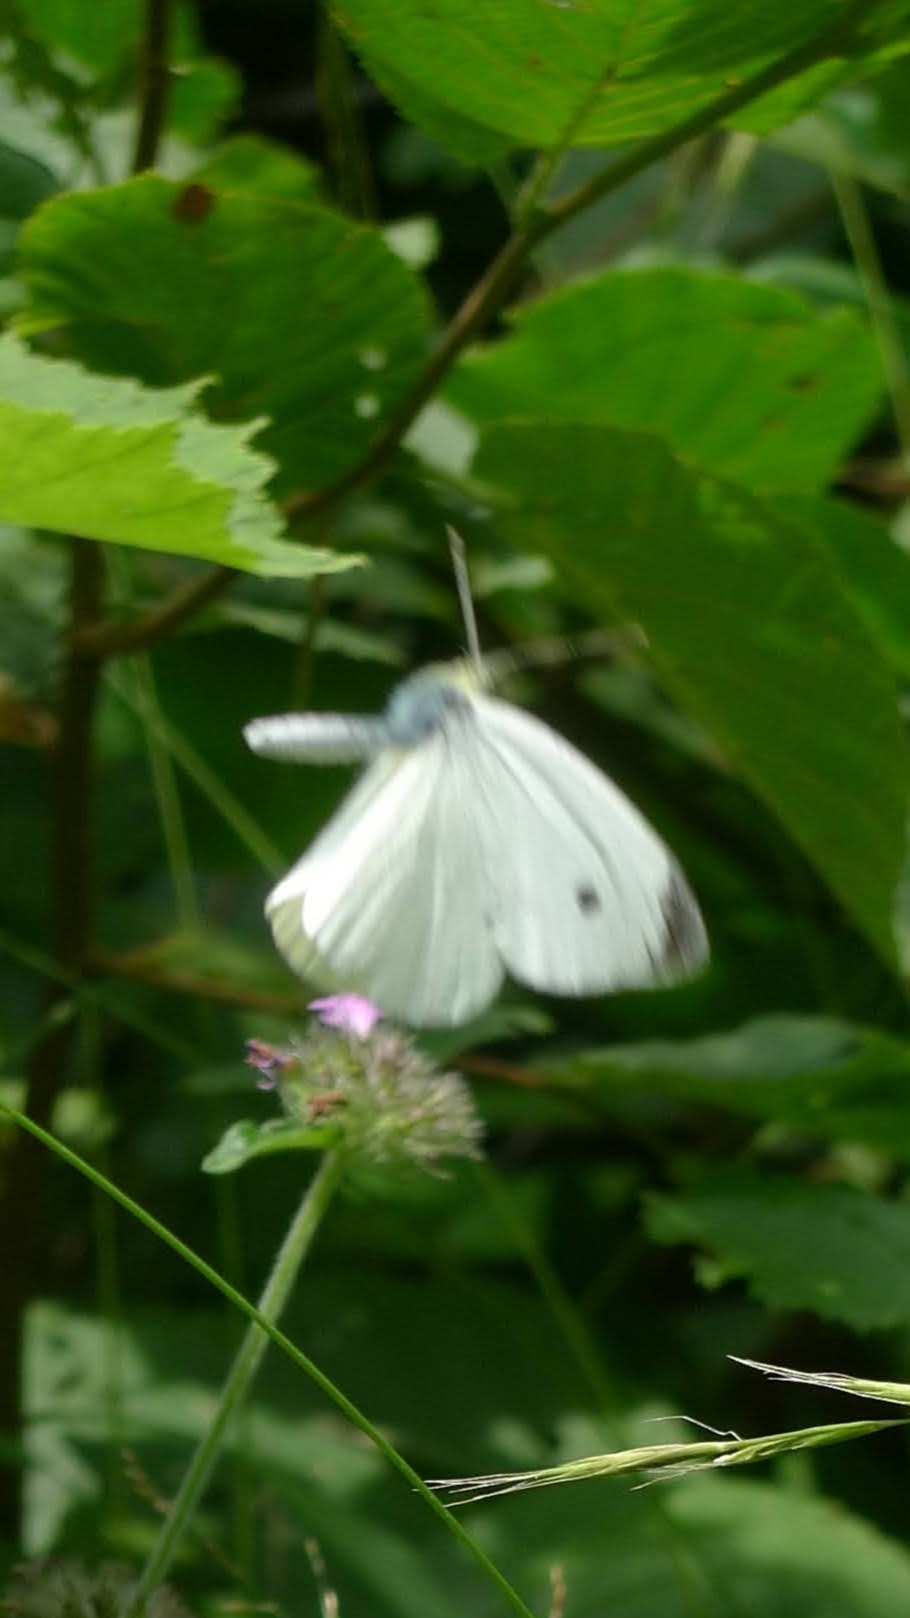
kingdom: Animalia
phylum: Arthropoda
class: Insecta
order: Lepidoptera
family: Pieridae
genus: Pieris
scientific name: Pieris rapae
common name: Small white
